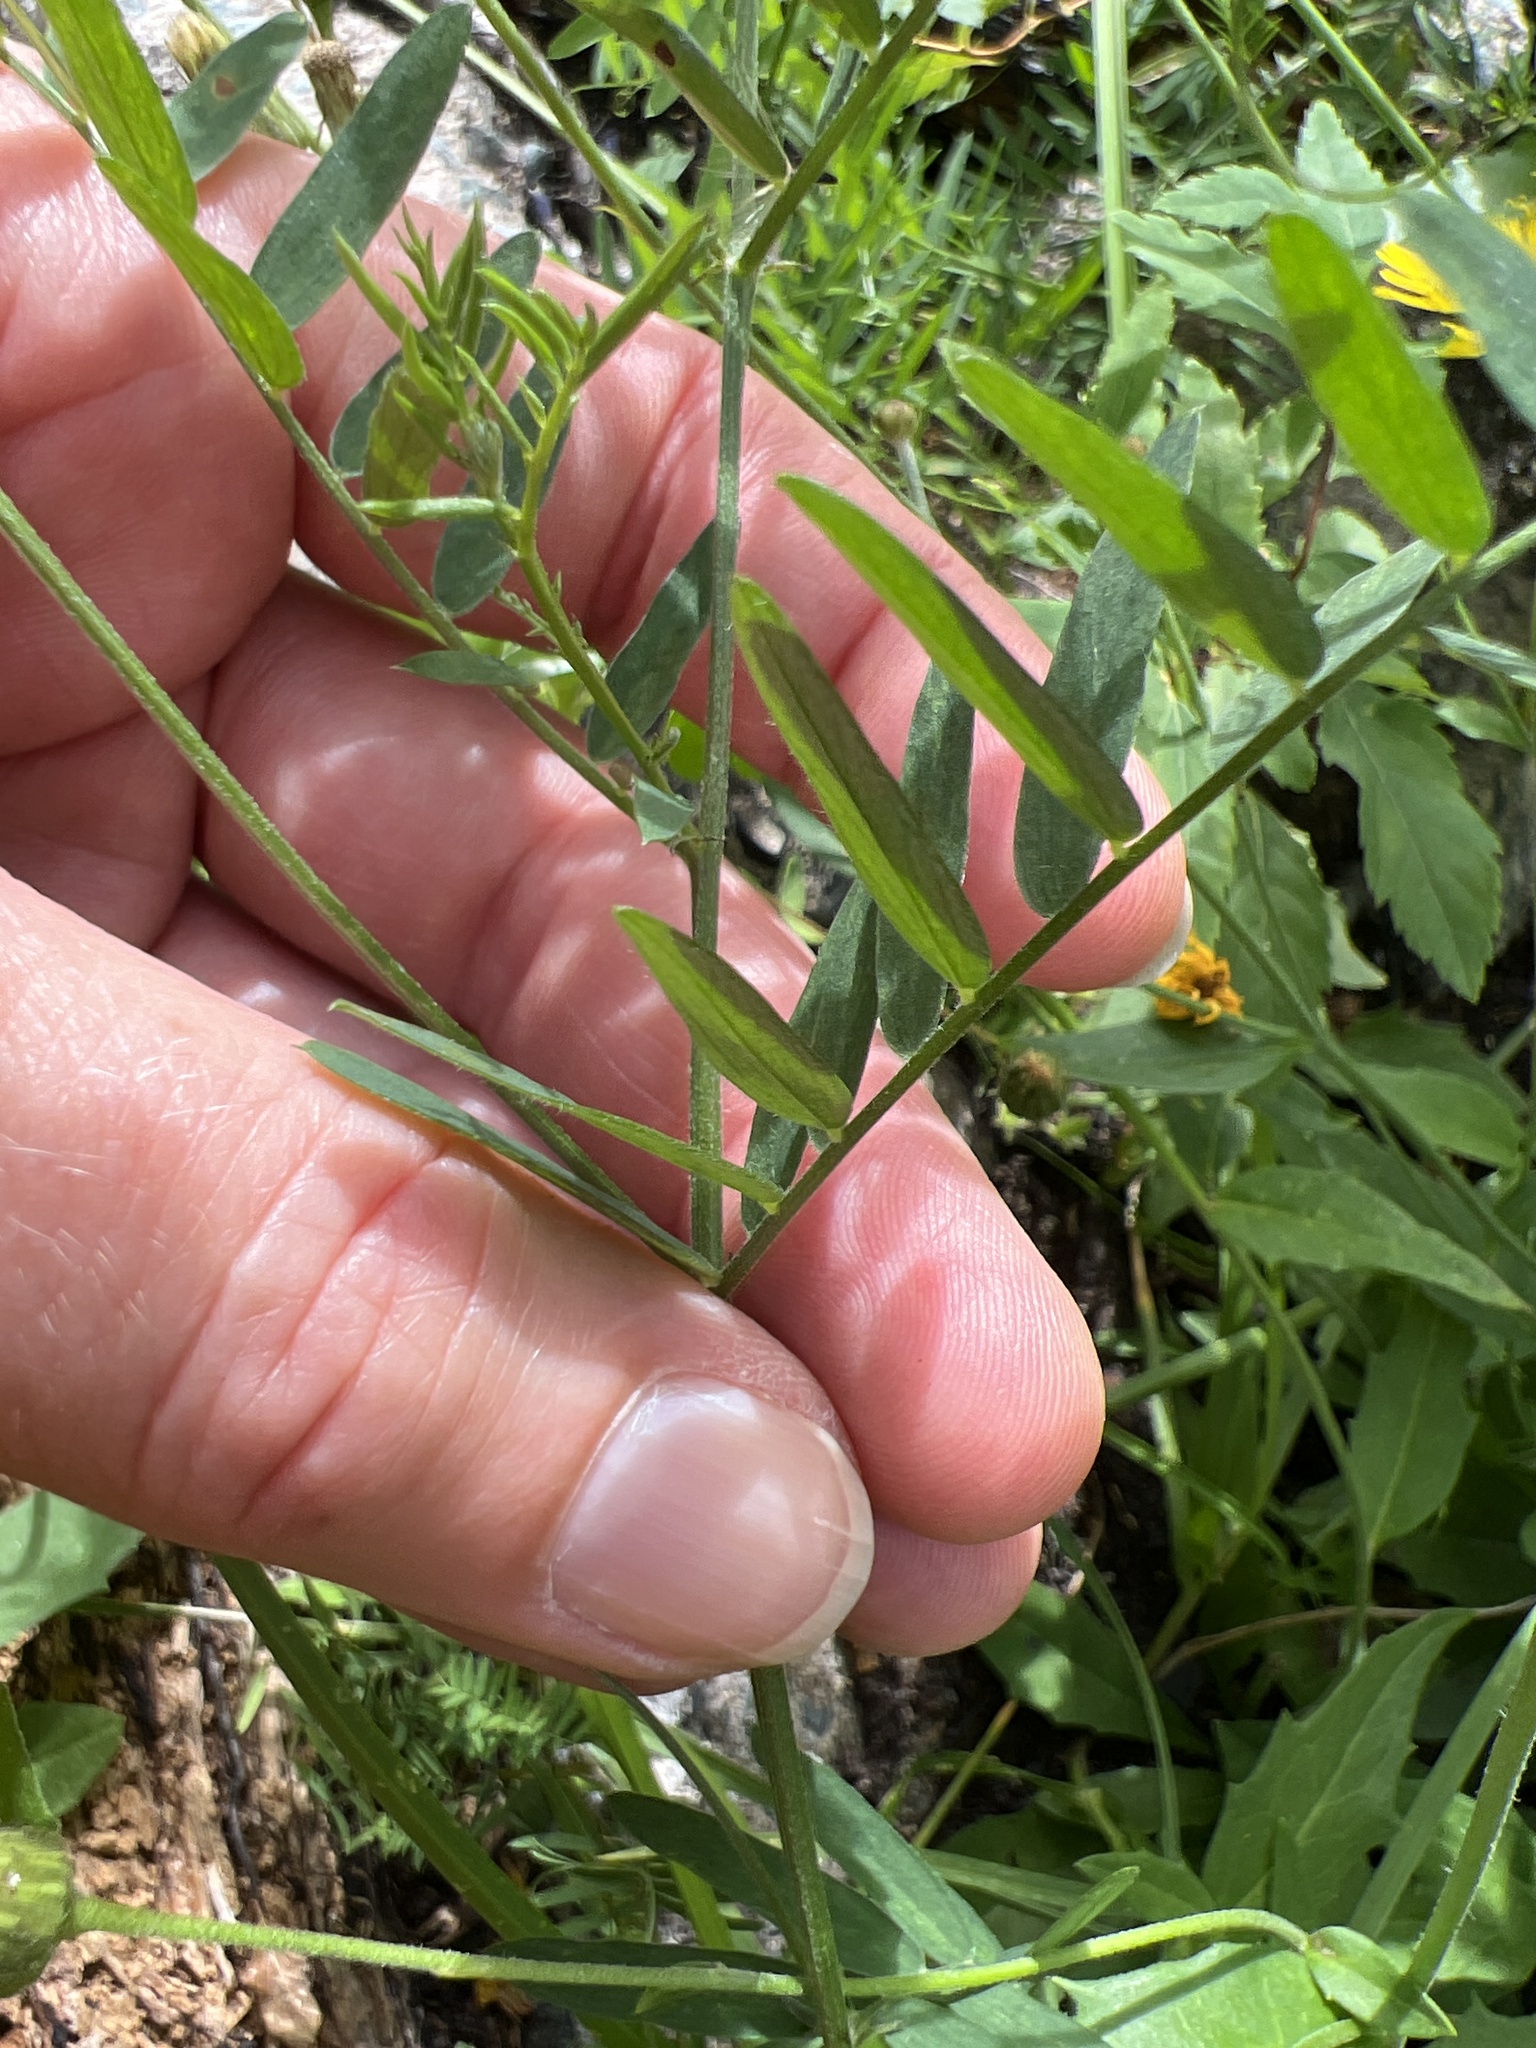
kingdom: Plantae
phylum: Tracheophyta
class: Magnoliopsida
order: Fabales
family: Fabaceae
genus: Vicia
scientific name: Vicia cracca
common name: Bird vetch
